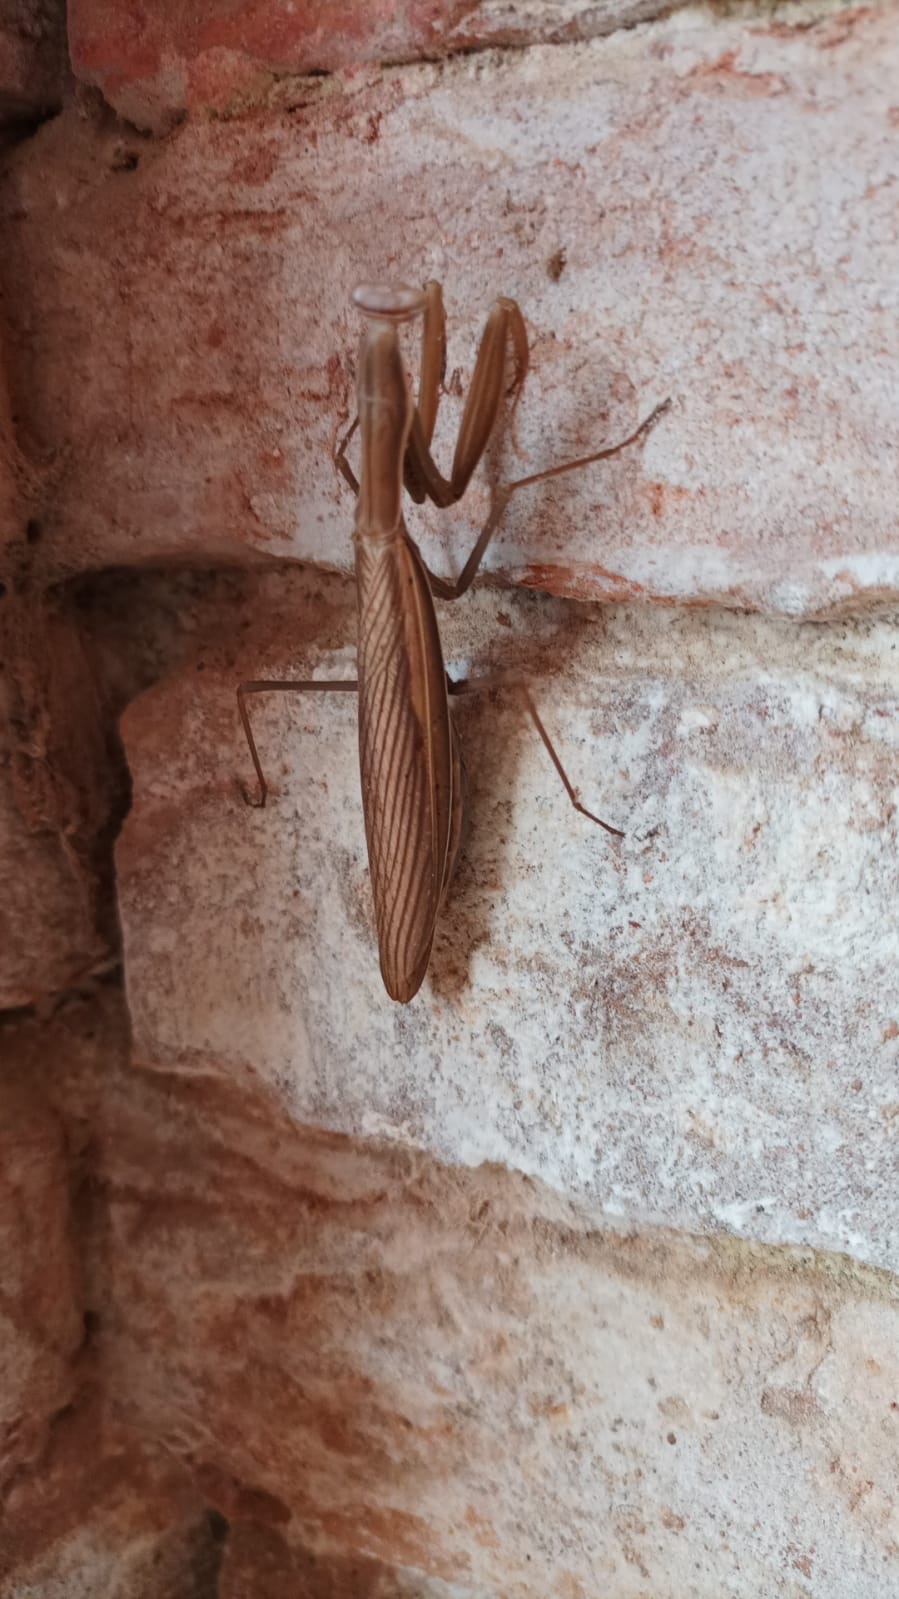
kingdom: Animalia
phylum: Arthropoda
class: Insecta
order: Mantodea
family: Mantidae
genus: Mantis
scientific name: Mantis religiosa
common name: Praying mantis
